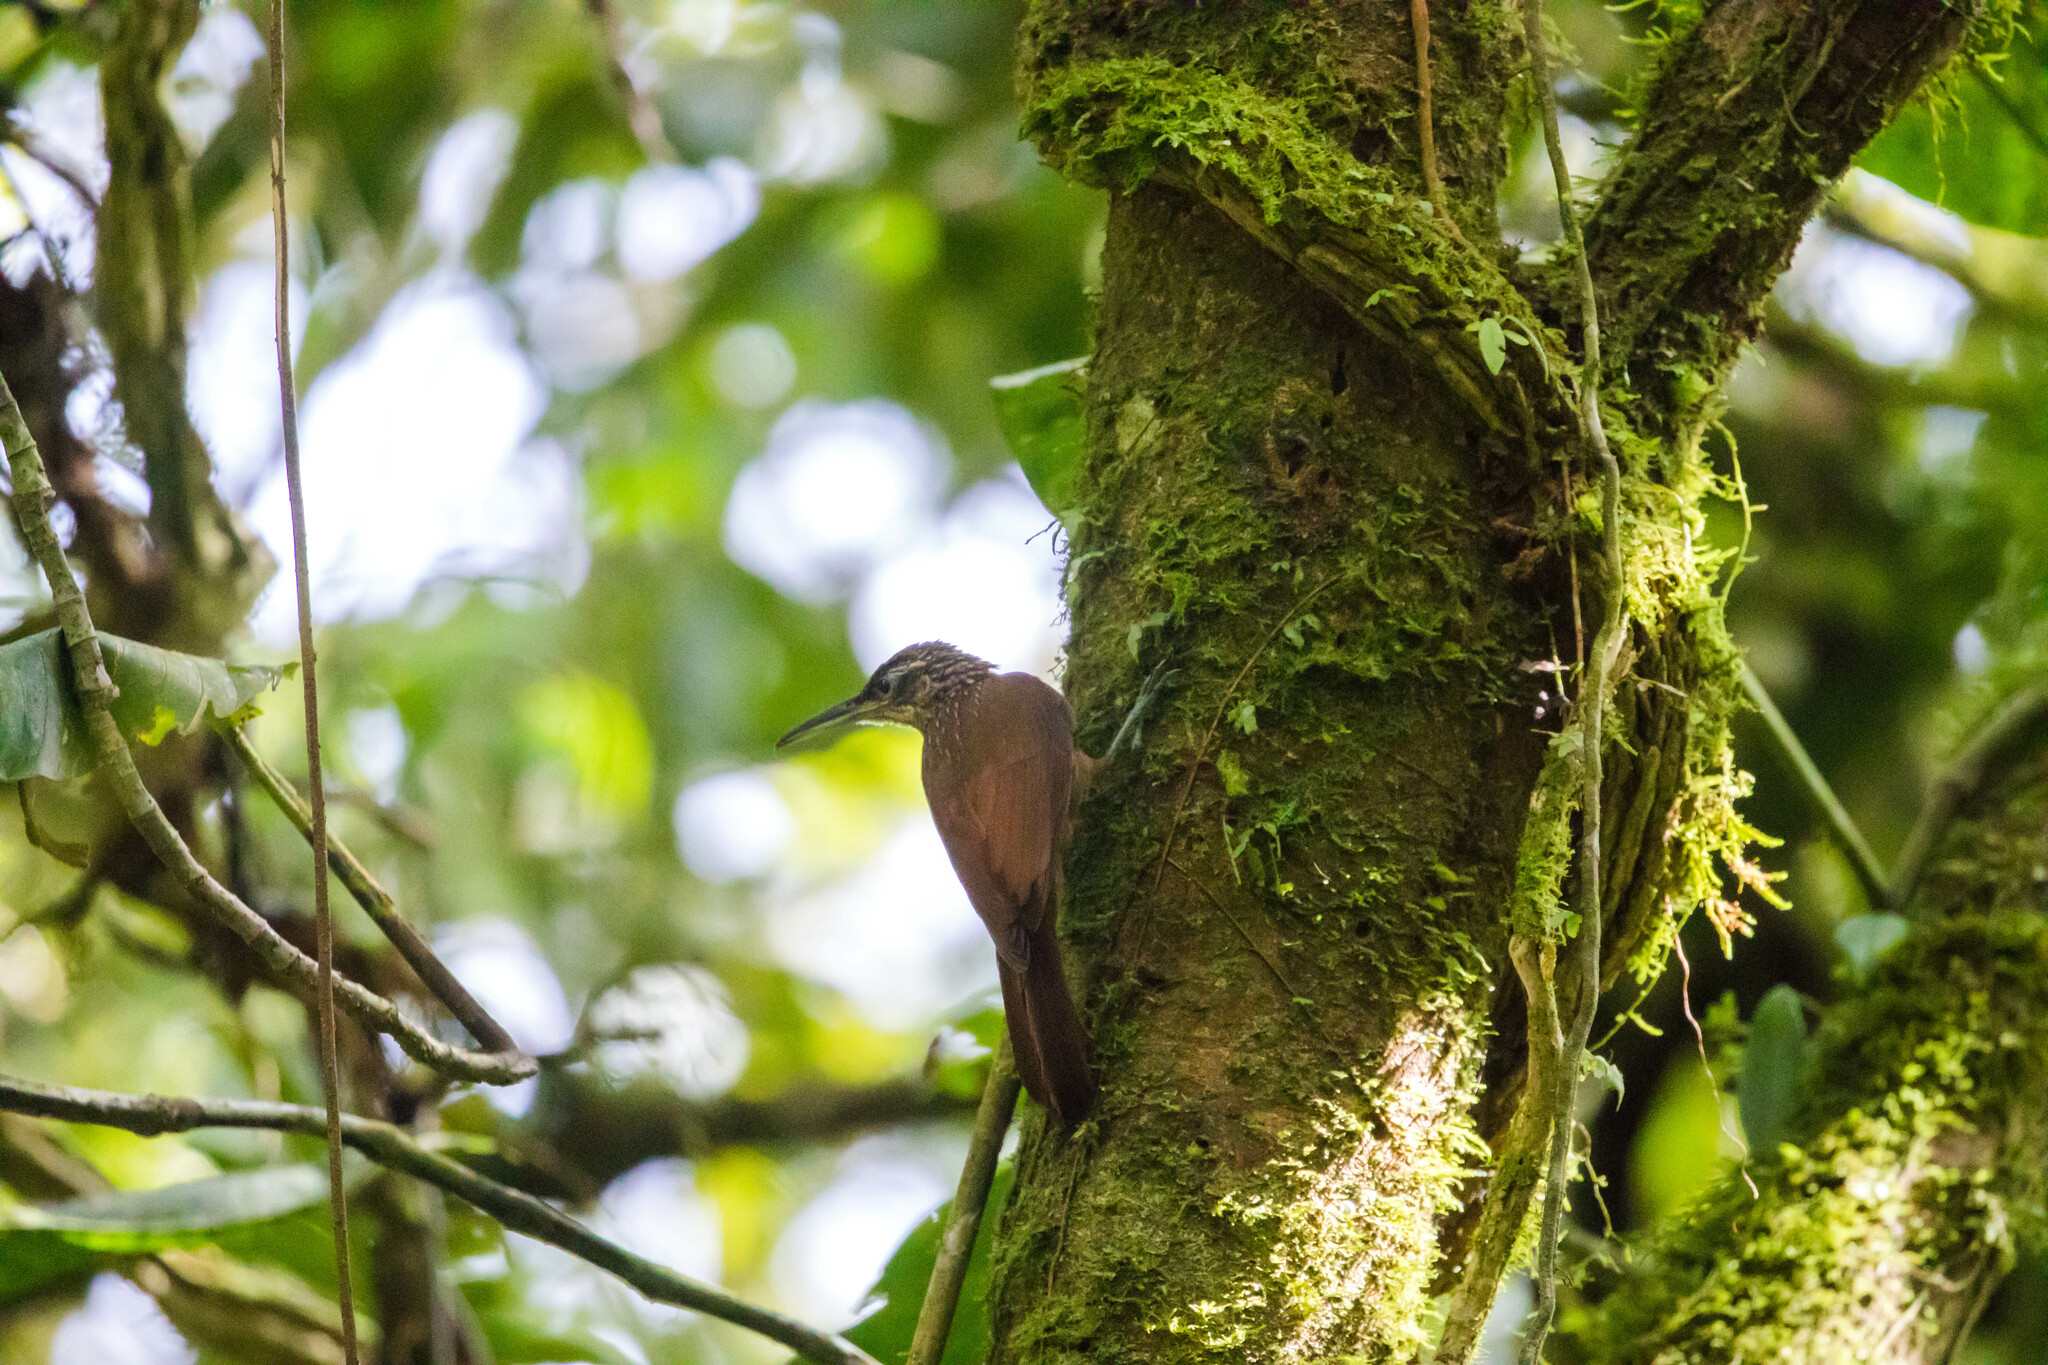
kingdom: Animalia
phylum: Chordata
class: Aves
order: Passeriformes
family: Furnariidae
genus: Xiphorhynchus
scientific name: Xiphorhynchus susurrans
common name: Cocoa woodcreeper
